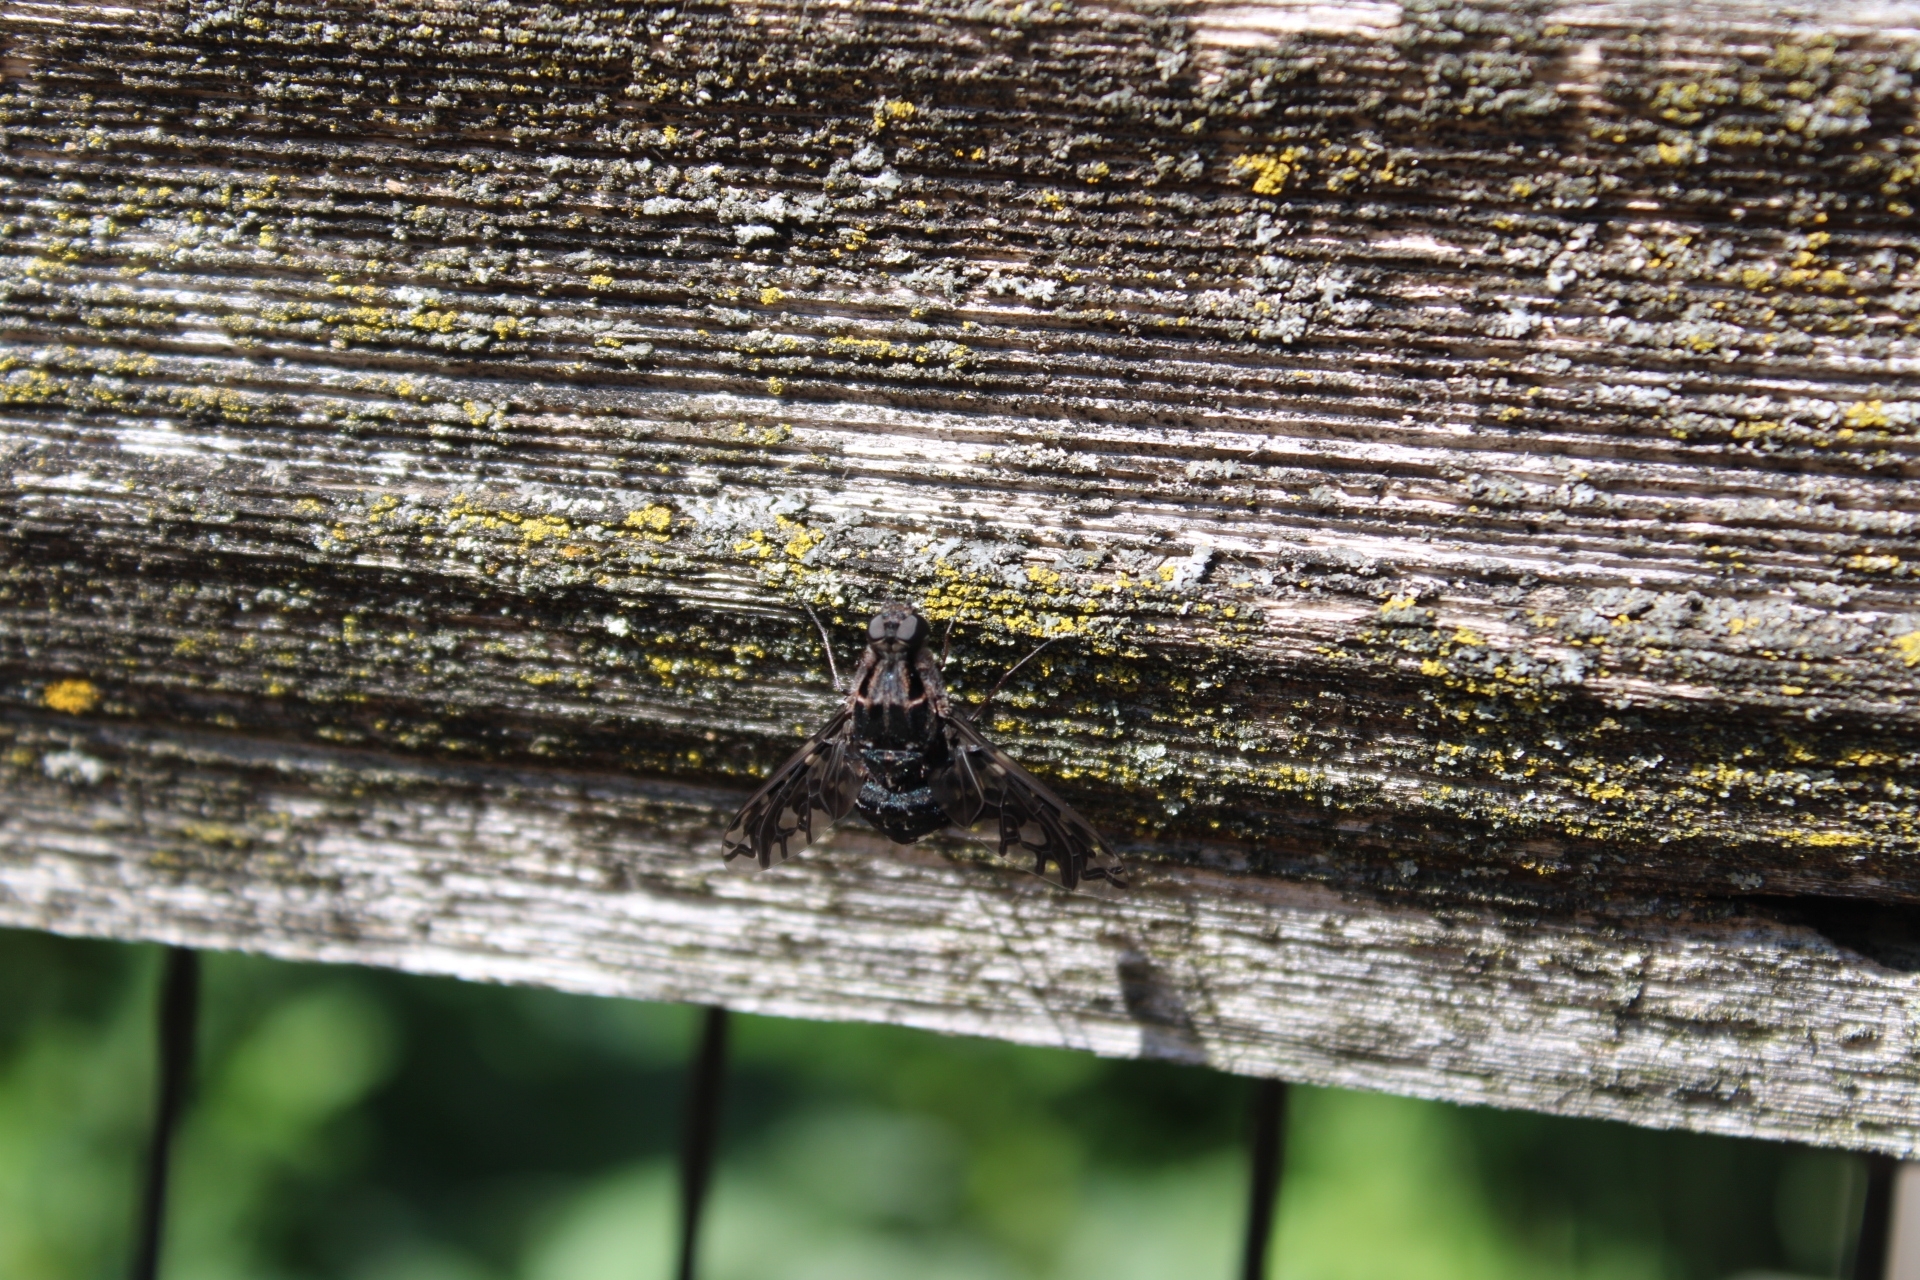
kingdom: Animalia
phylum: Arthropoda
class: Insecta
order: Diptera
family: Bombyliidae
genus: Xenox
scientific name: Xenox tigrinus
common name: Tiger bee fly
